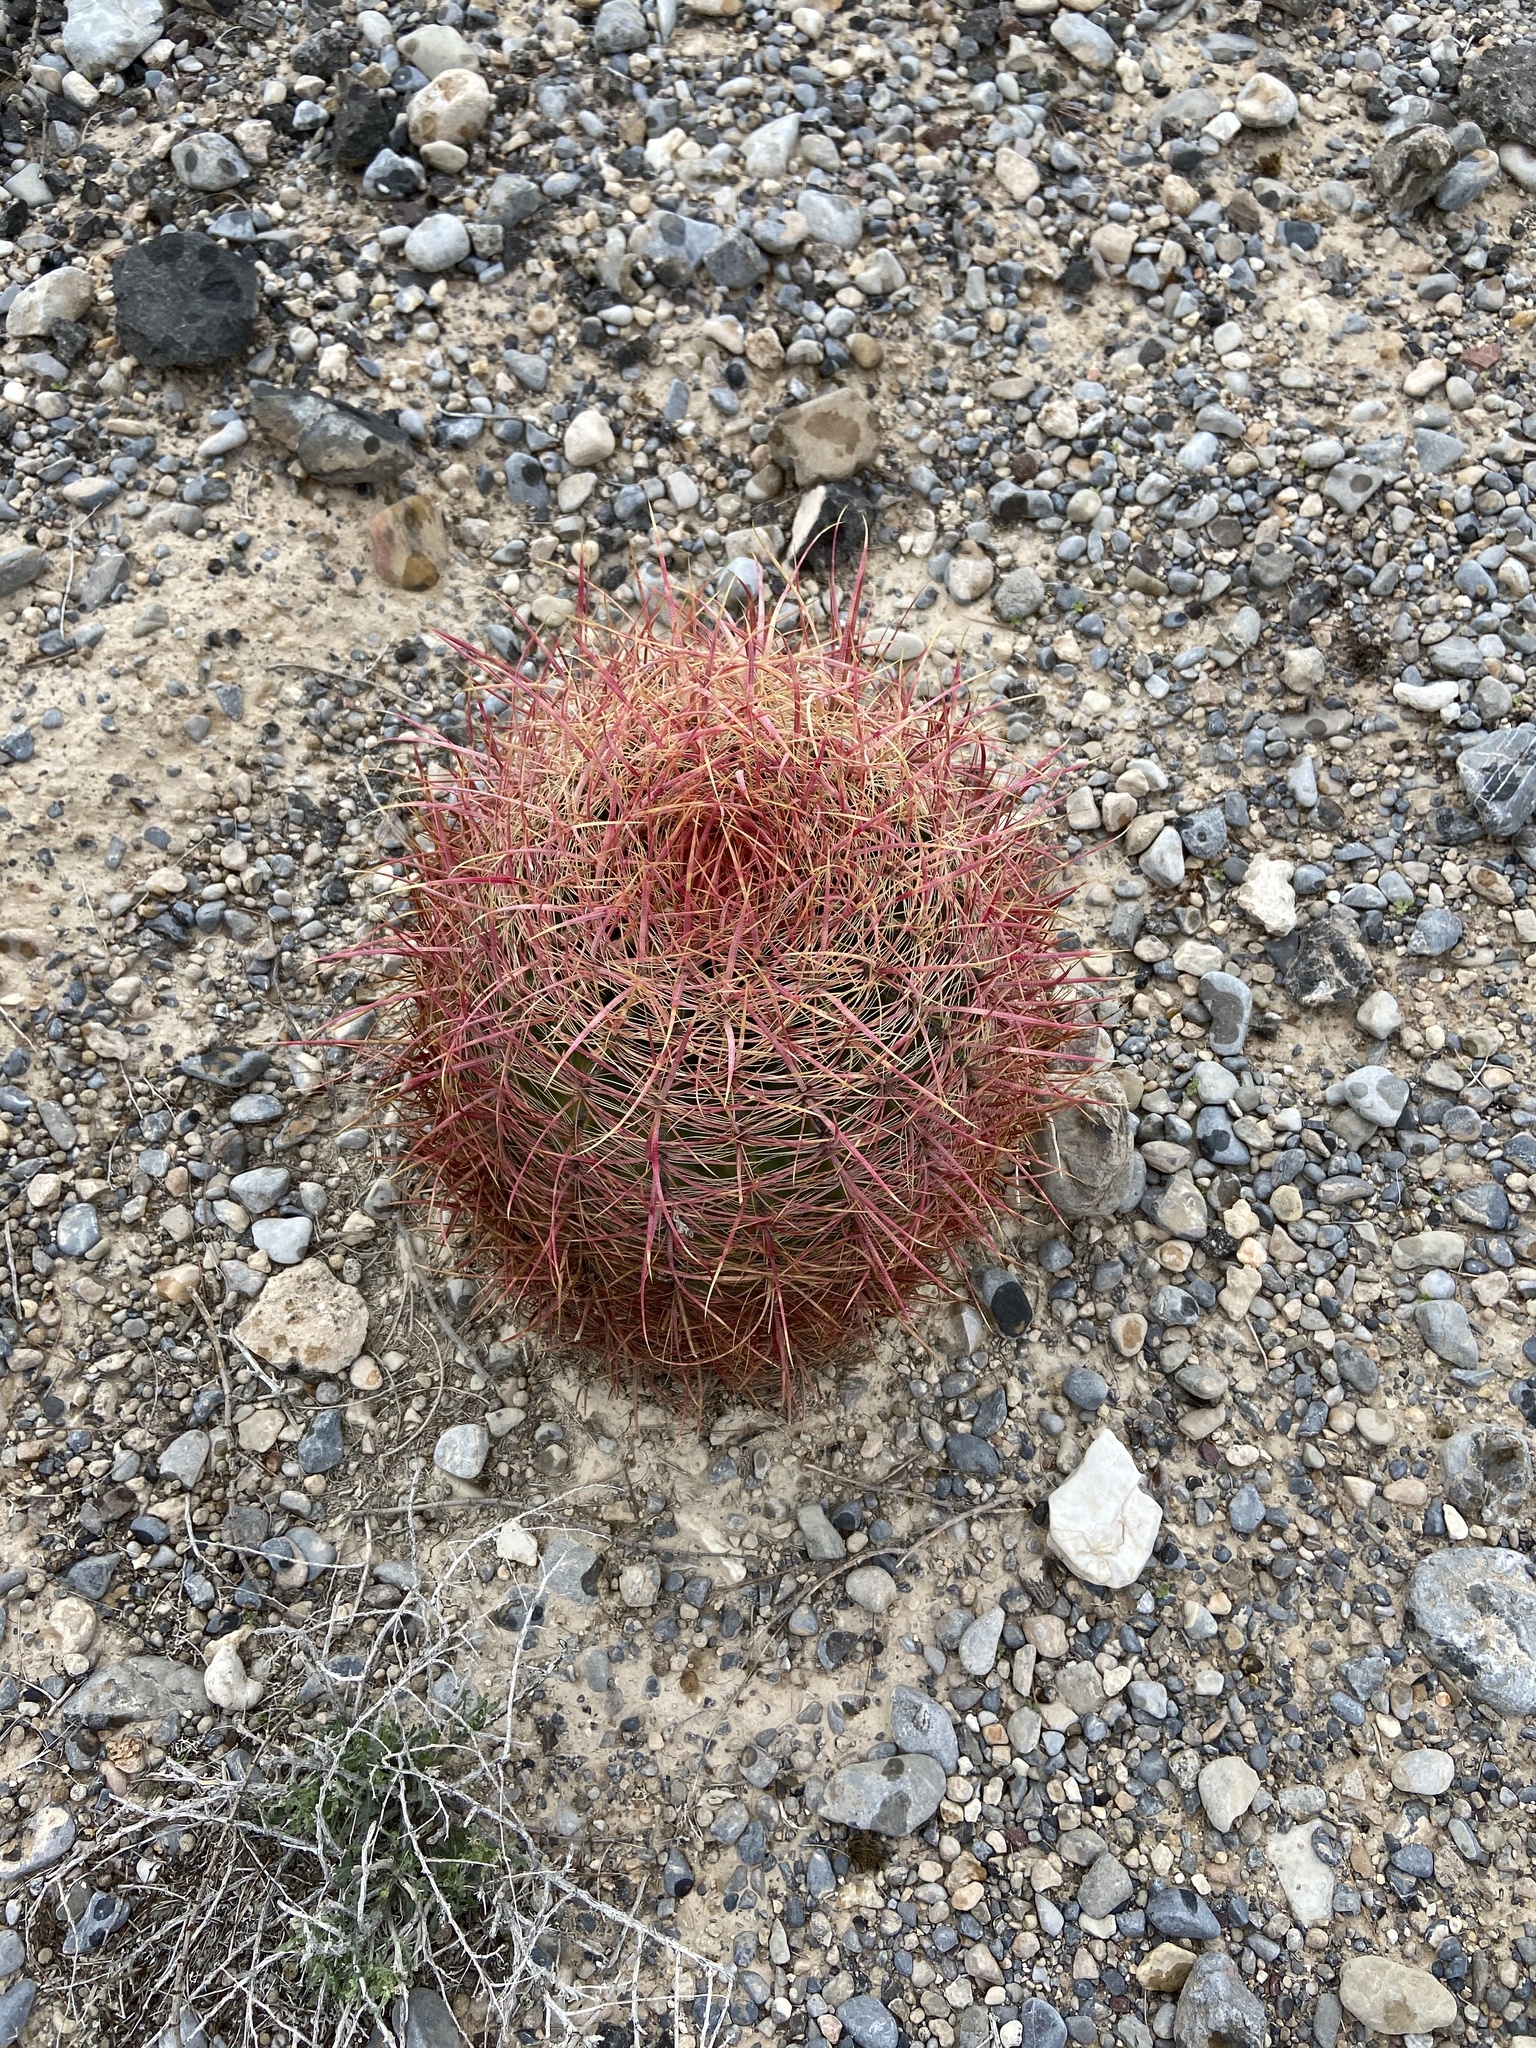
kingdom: Plantae
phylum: Tracheophyta
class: Magnoliopsida
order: Caryophyllales
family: Cactaceae
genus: Ferocactus
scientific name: Ferocactus cylindraceus
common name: California barrel cactus
